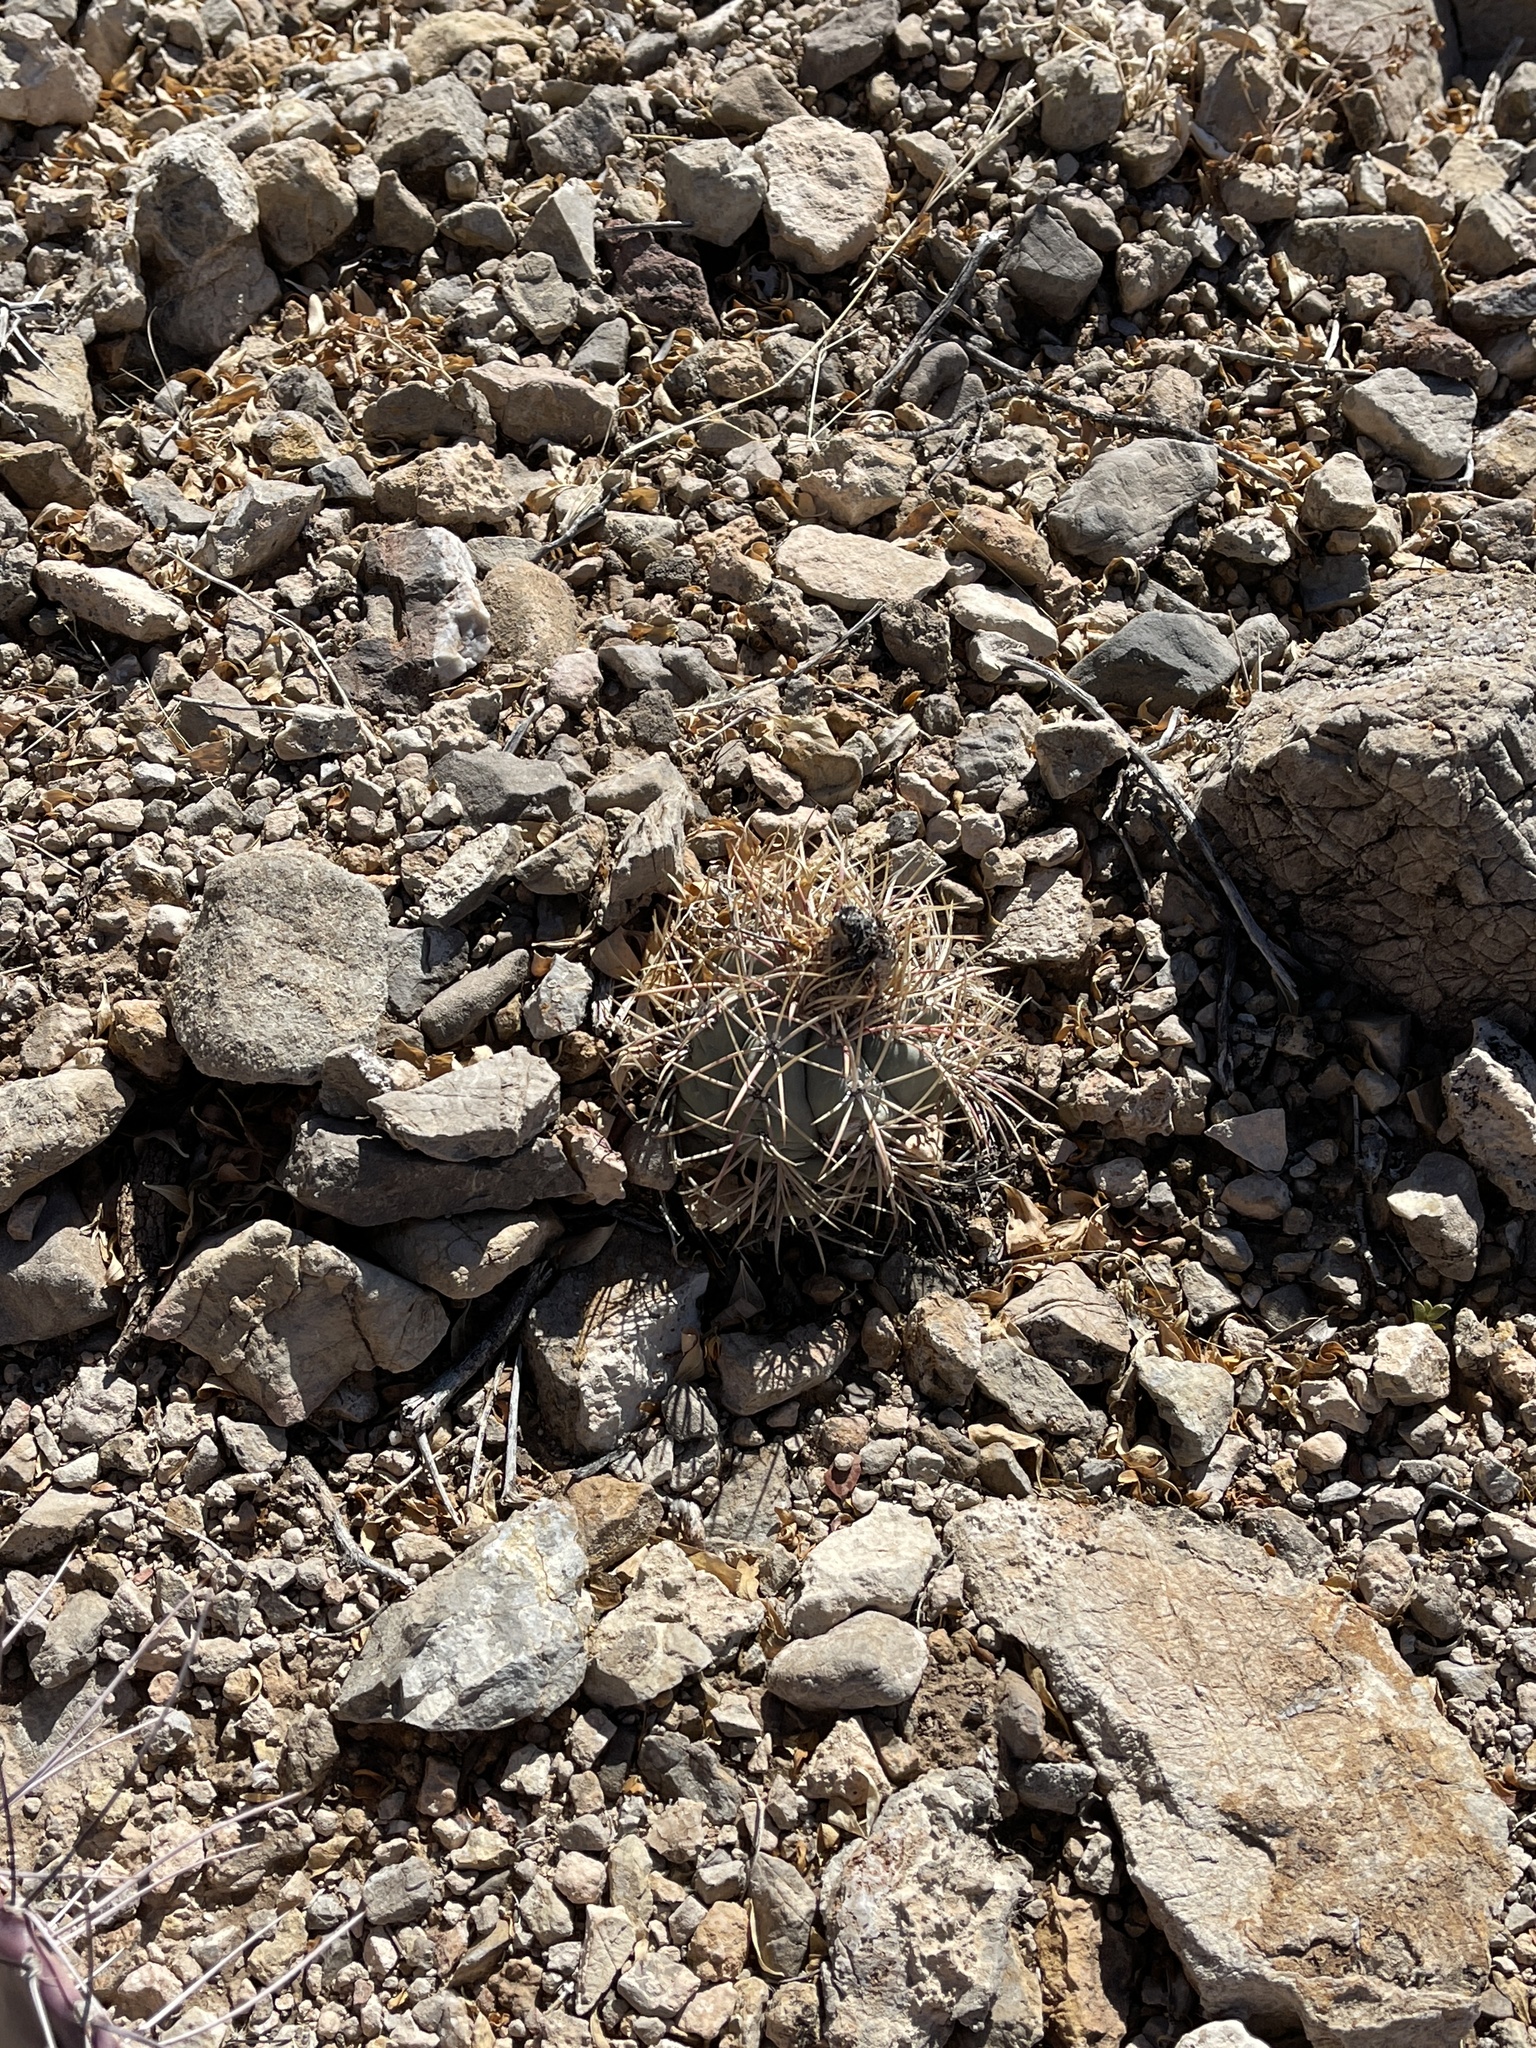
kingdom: Plantae
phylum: Tracheophyta
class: Magnoliopsida
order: Caryophyllales
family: Cactaceae
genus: Echinocactus
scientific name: Echinocactus horizonthalonius
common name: Devilshead
